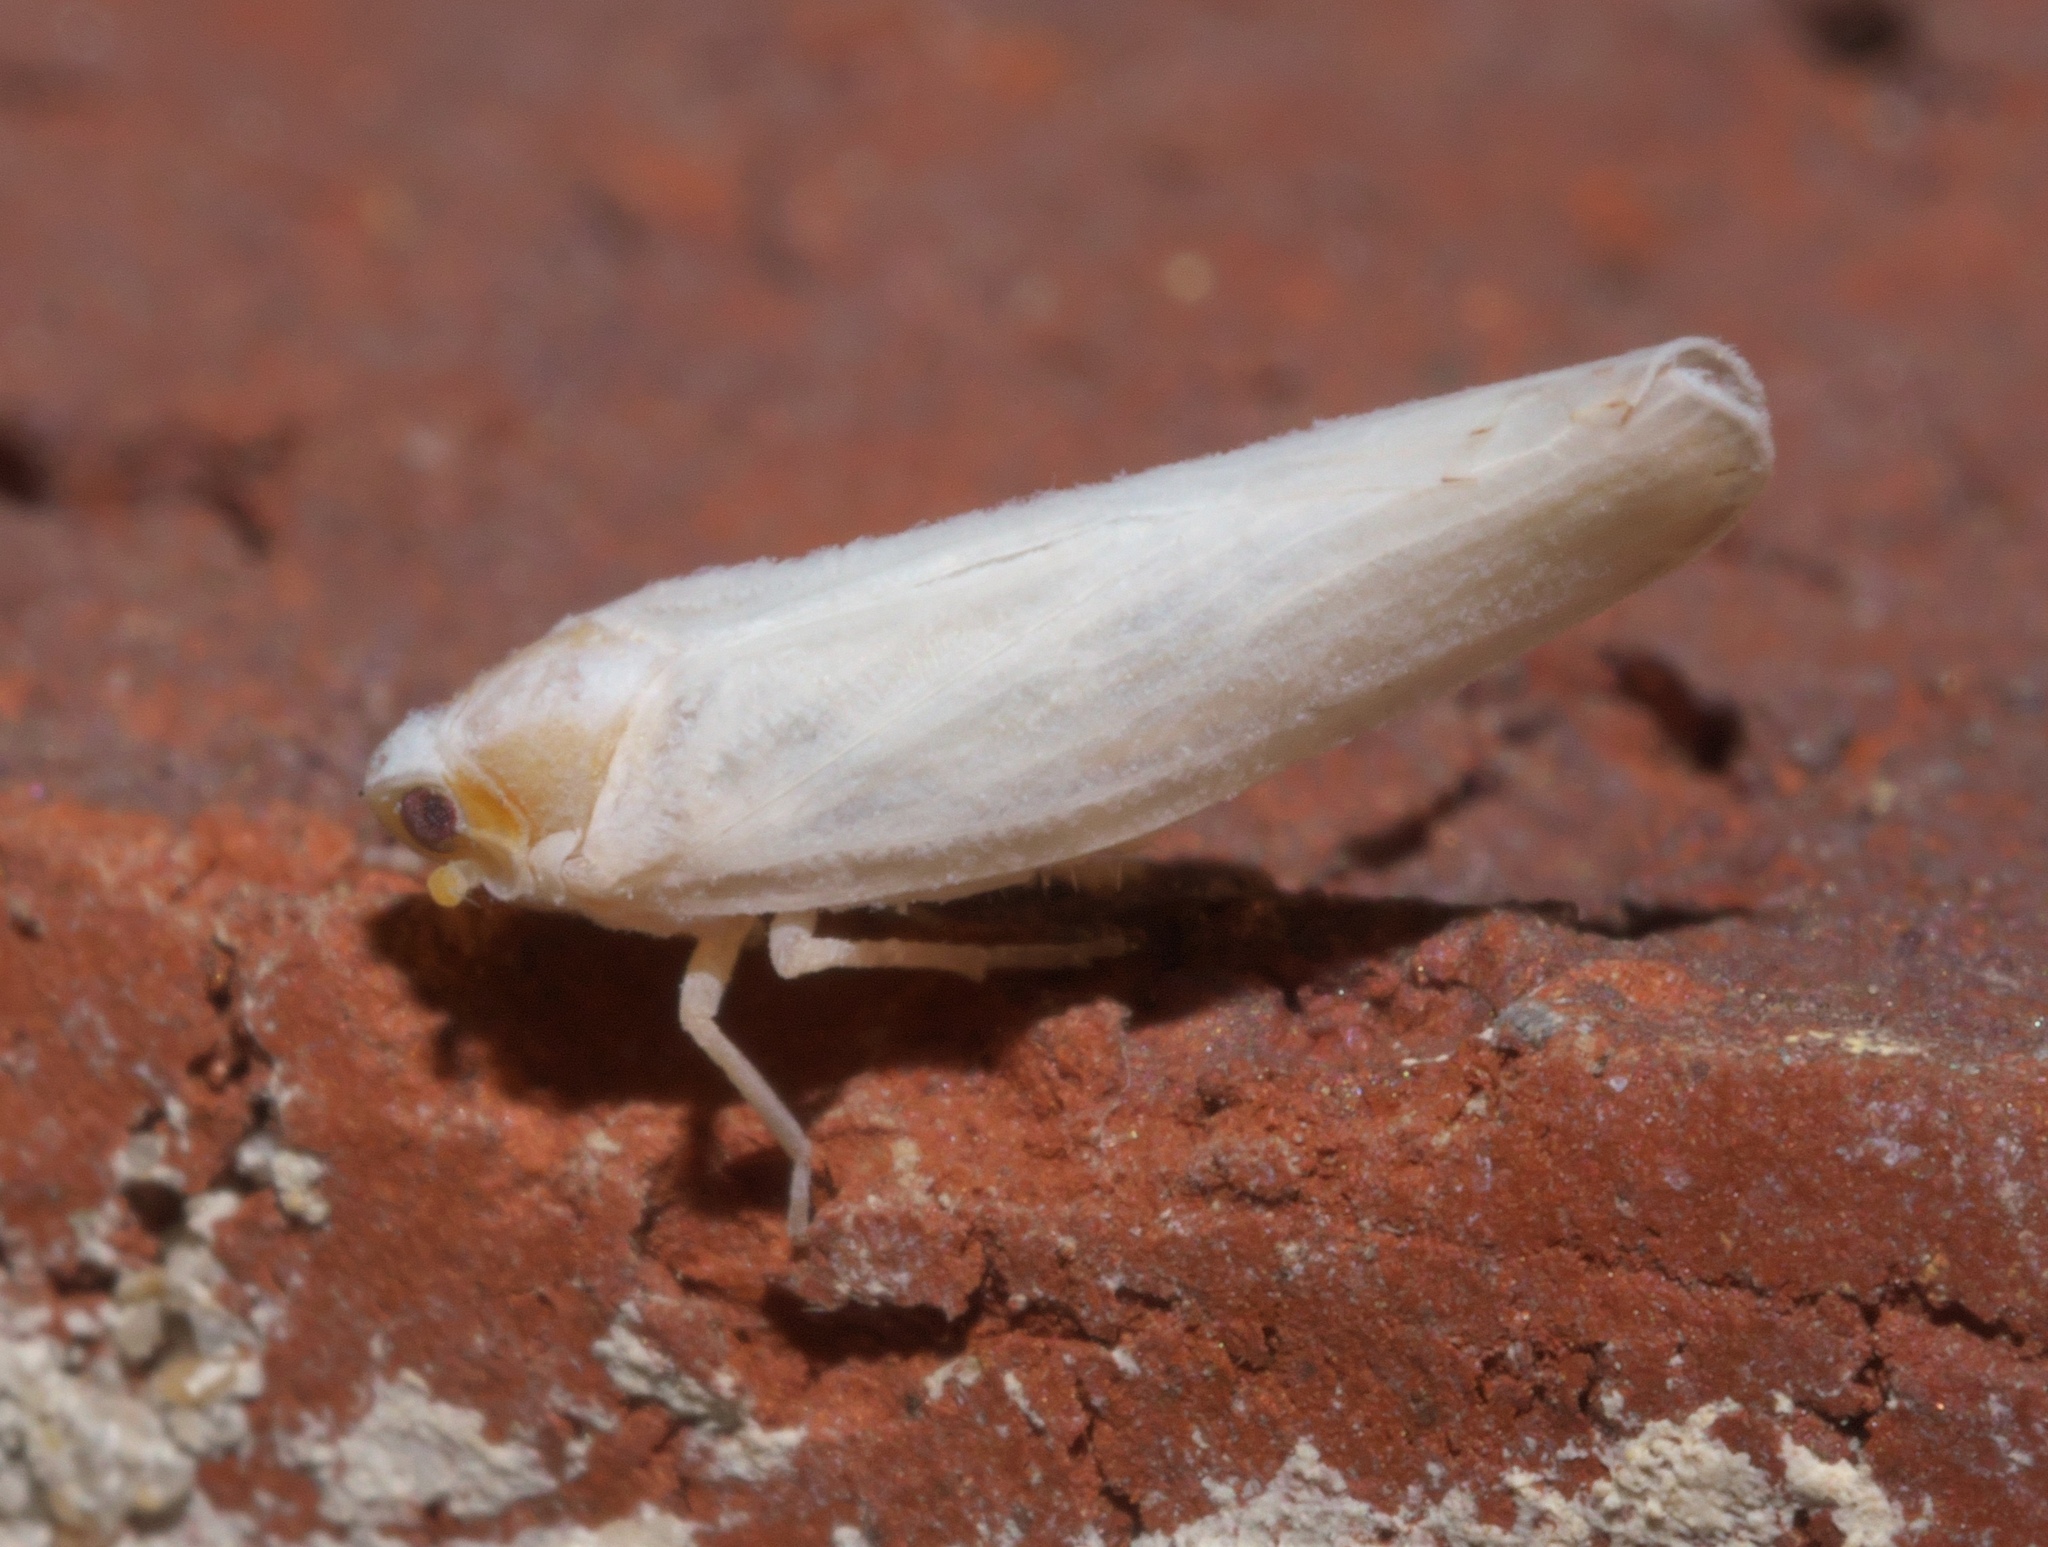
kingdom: Animalia
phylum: Arthropoda
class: Insecta
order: Hemiptera
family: Derbidae
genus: Neocenchrea
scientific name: Neocenchrea heidemanni
